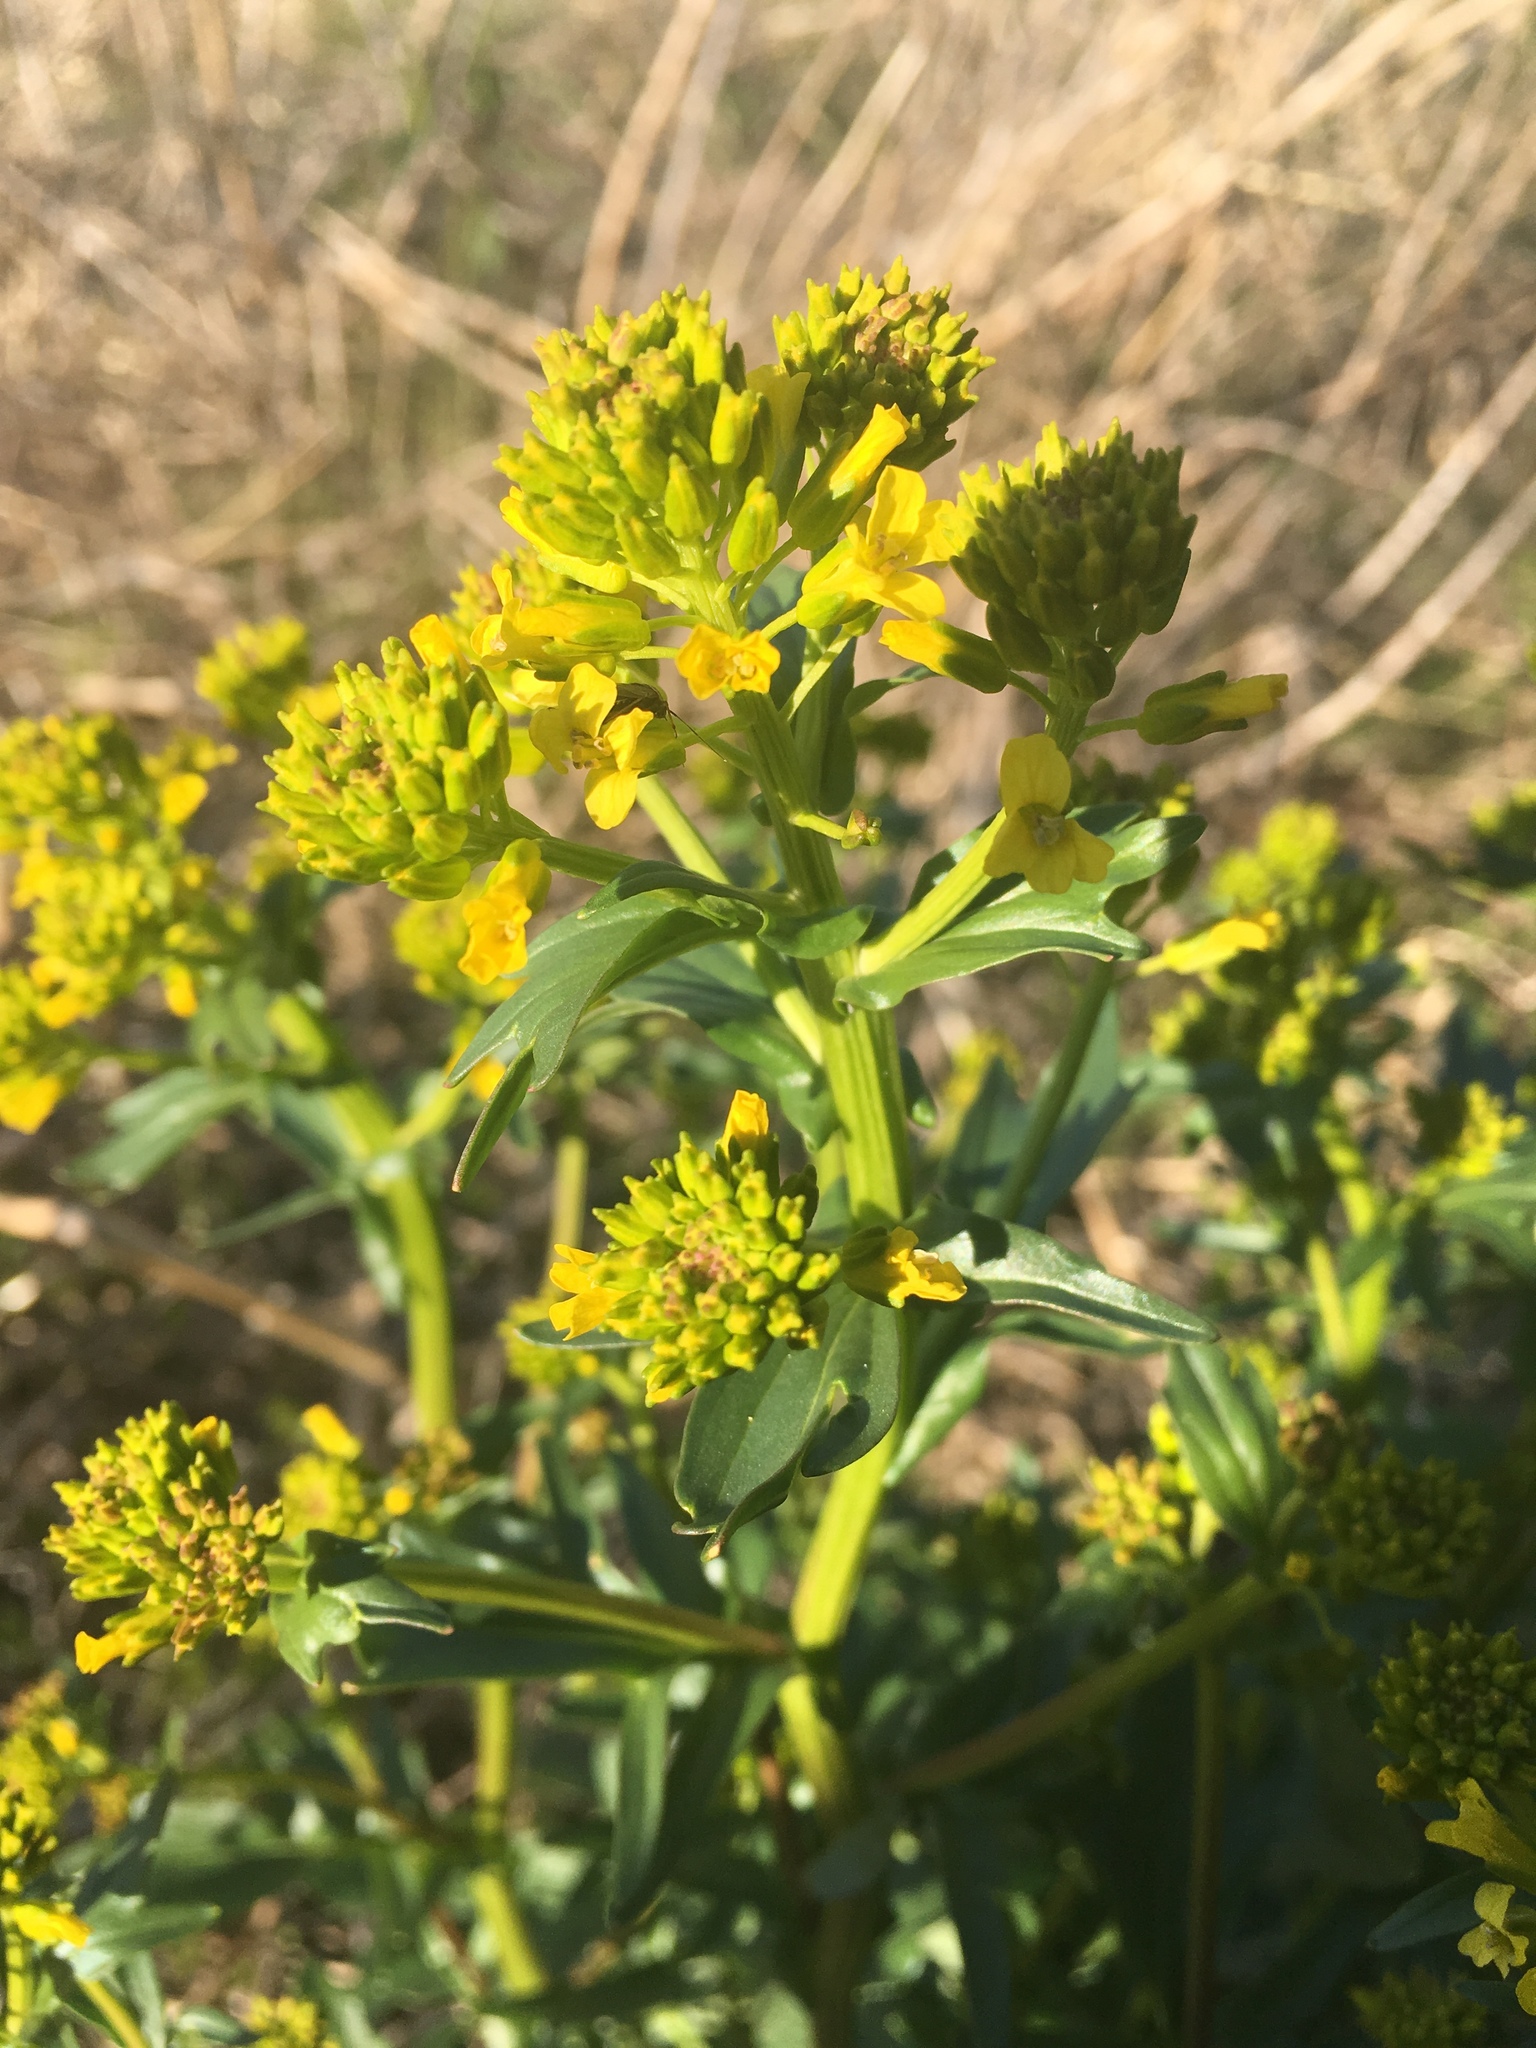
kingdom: Plantae
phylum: Tracheophyta
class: Magnoliopsida
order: Brassicales
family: Brassicaceae
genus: Barbarea
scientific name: Barbarea vulgaris
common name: Cressy-greens
